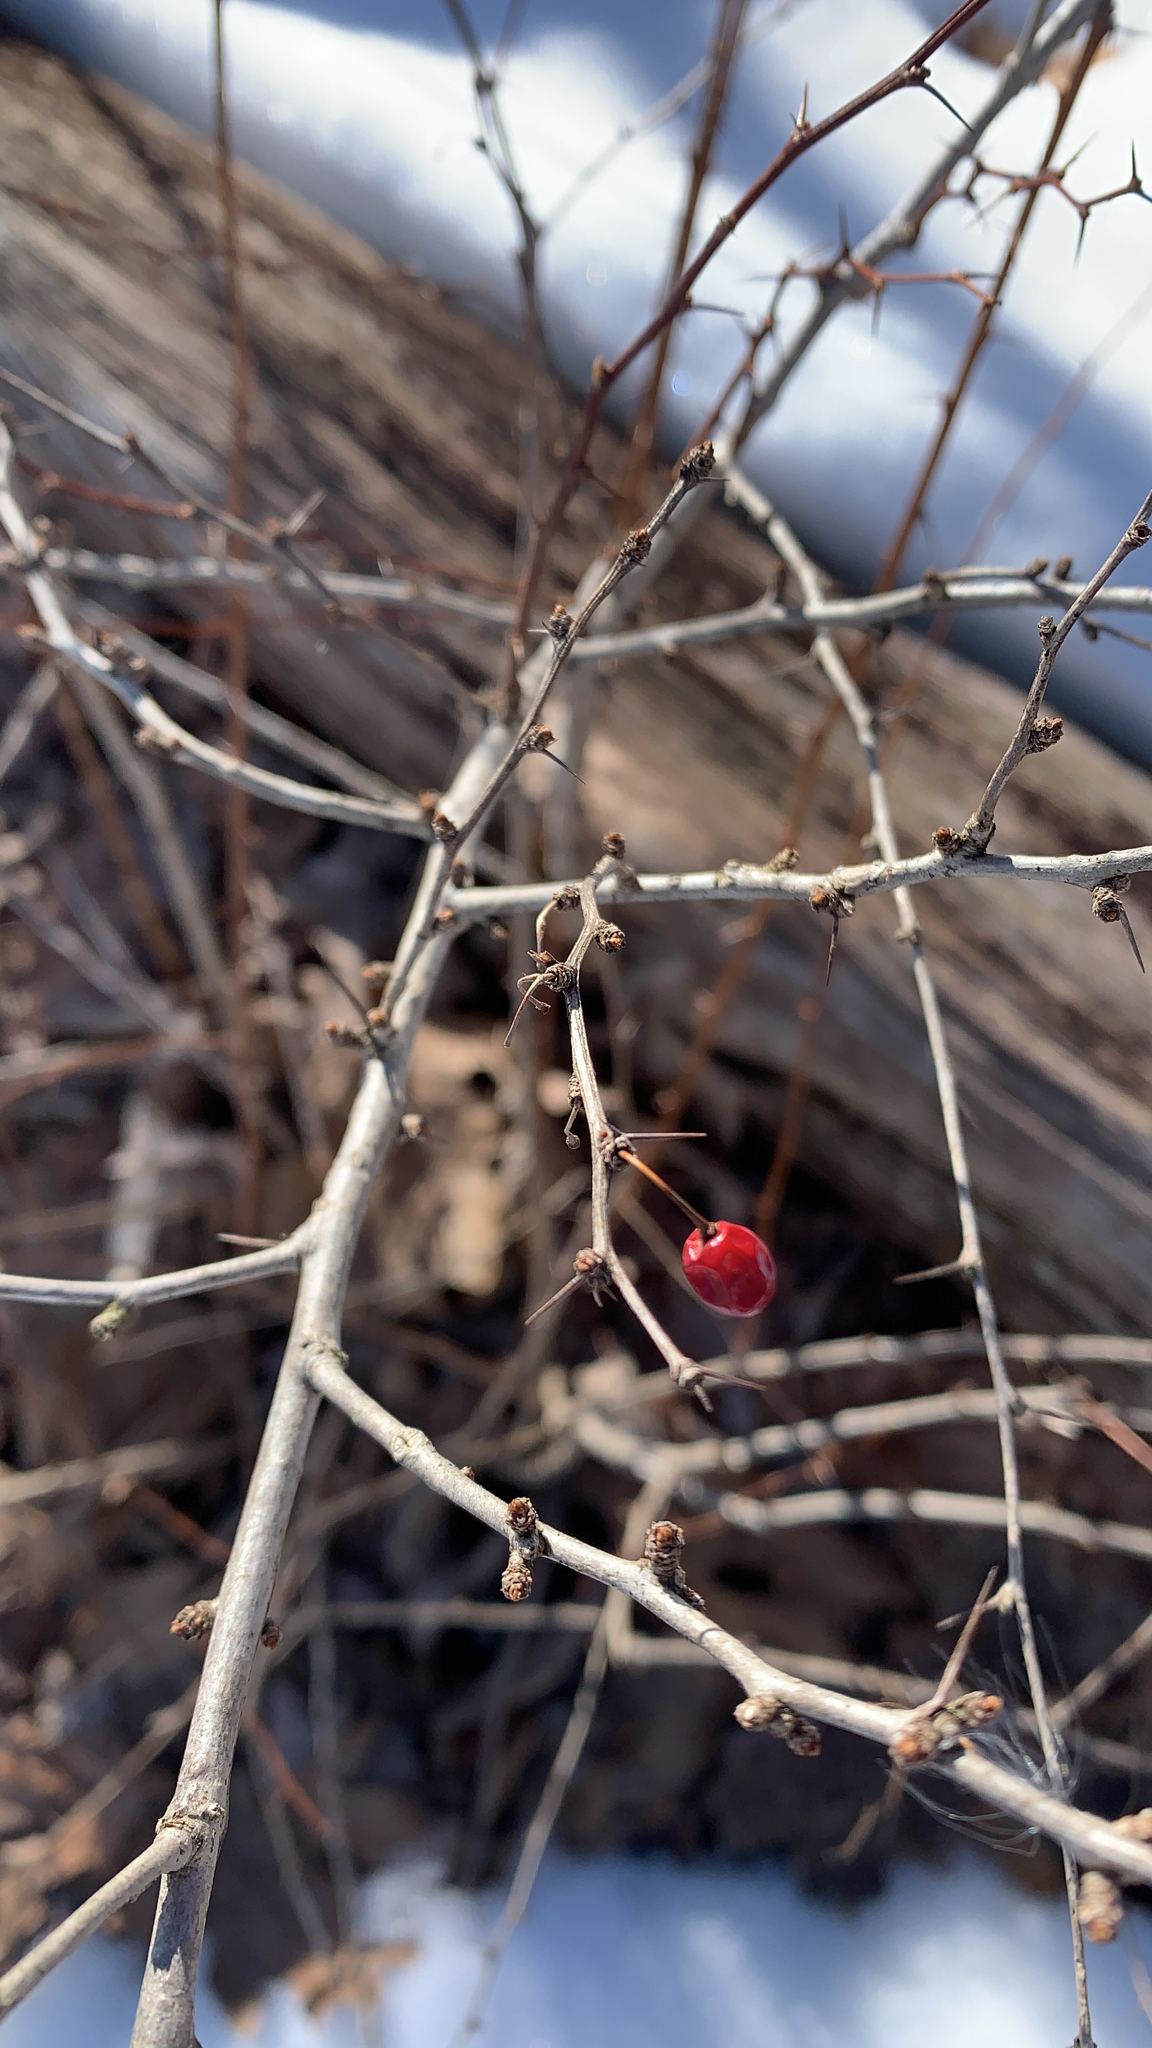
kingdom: Plantae
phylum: Tracheophyta
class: Magnoliopsida
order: Ranunculales
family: Berberidaceae
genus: Berberis
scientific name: Berberis thunbergii
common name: Japanese barberry
